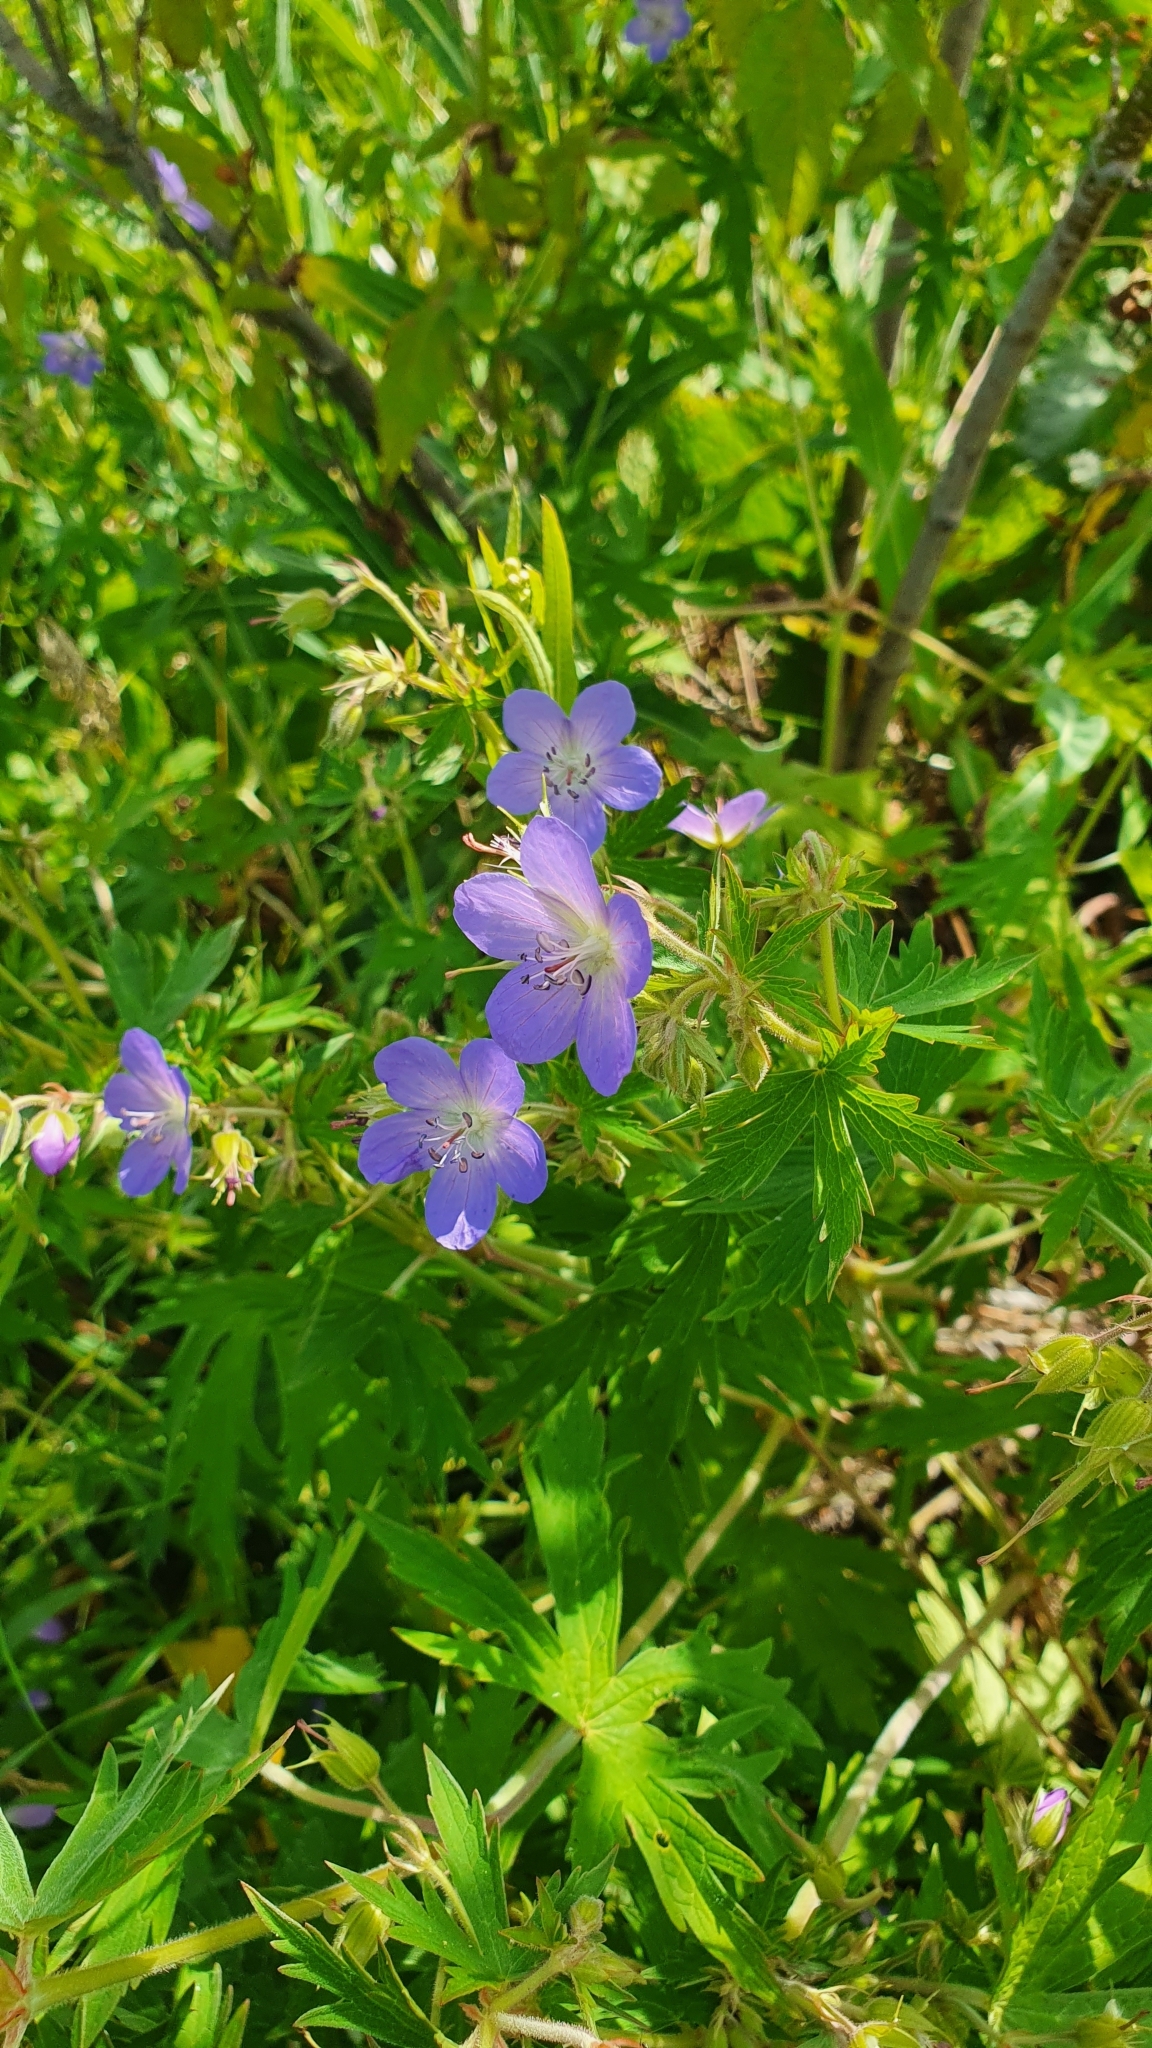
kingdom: Plantae
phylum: Tracheophyta
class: Magnoliopsida
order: Geraniales
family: Geraniaceae
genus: Geranium
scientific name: Geranium pratense
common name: Meadow crane's-bill
